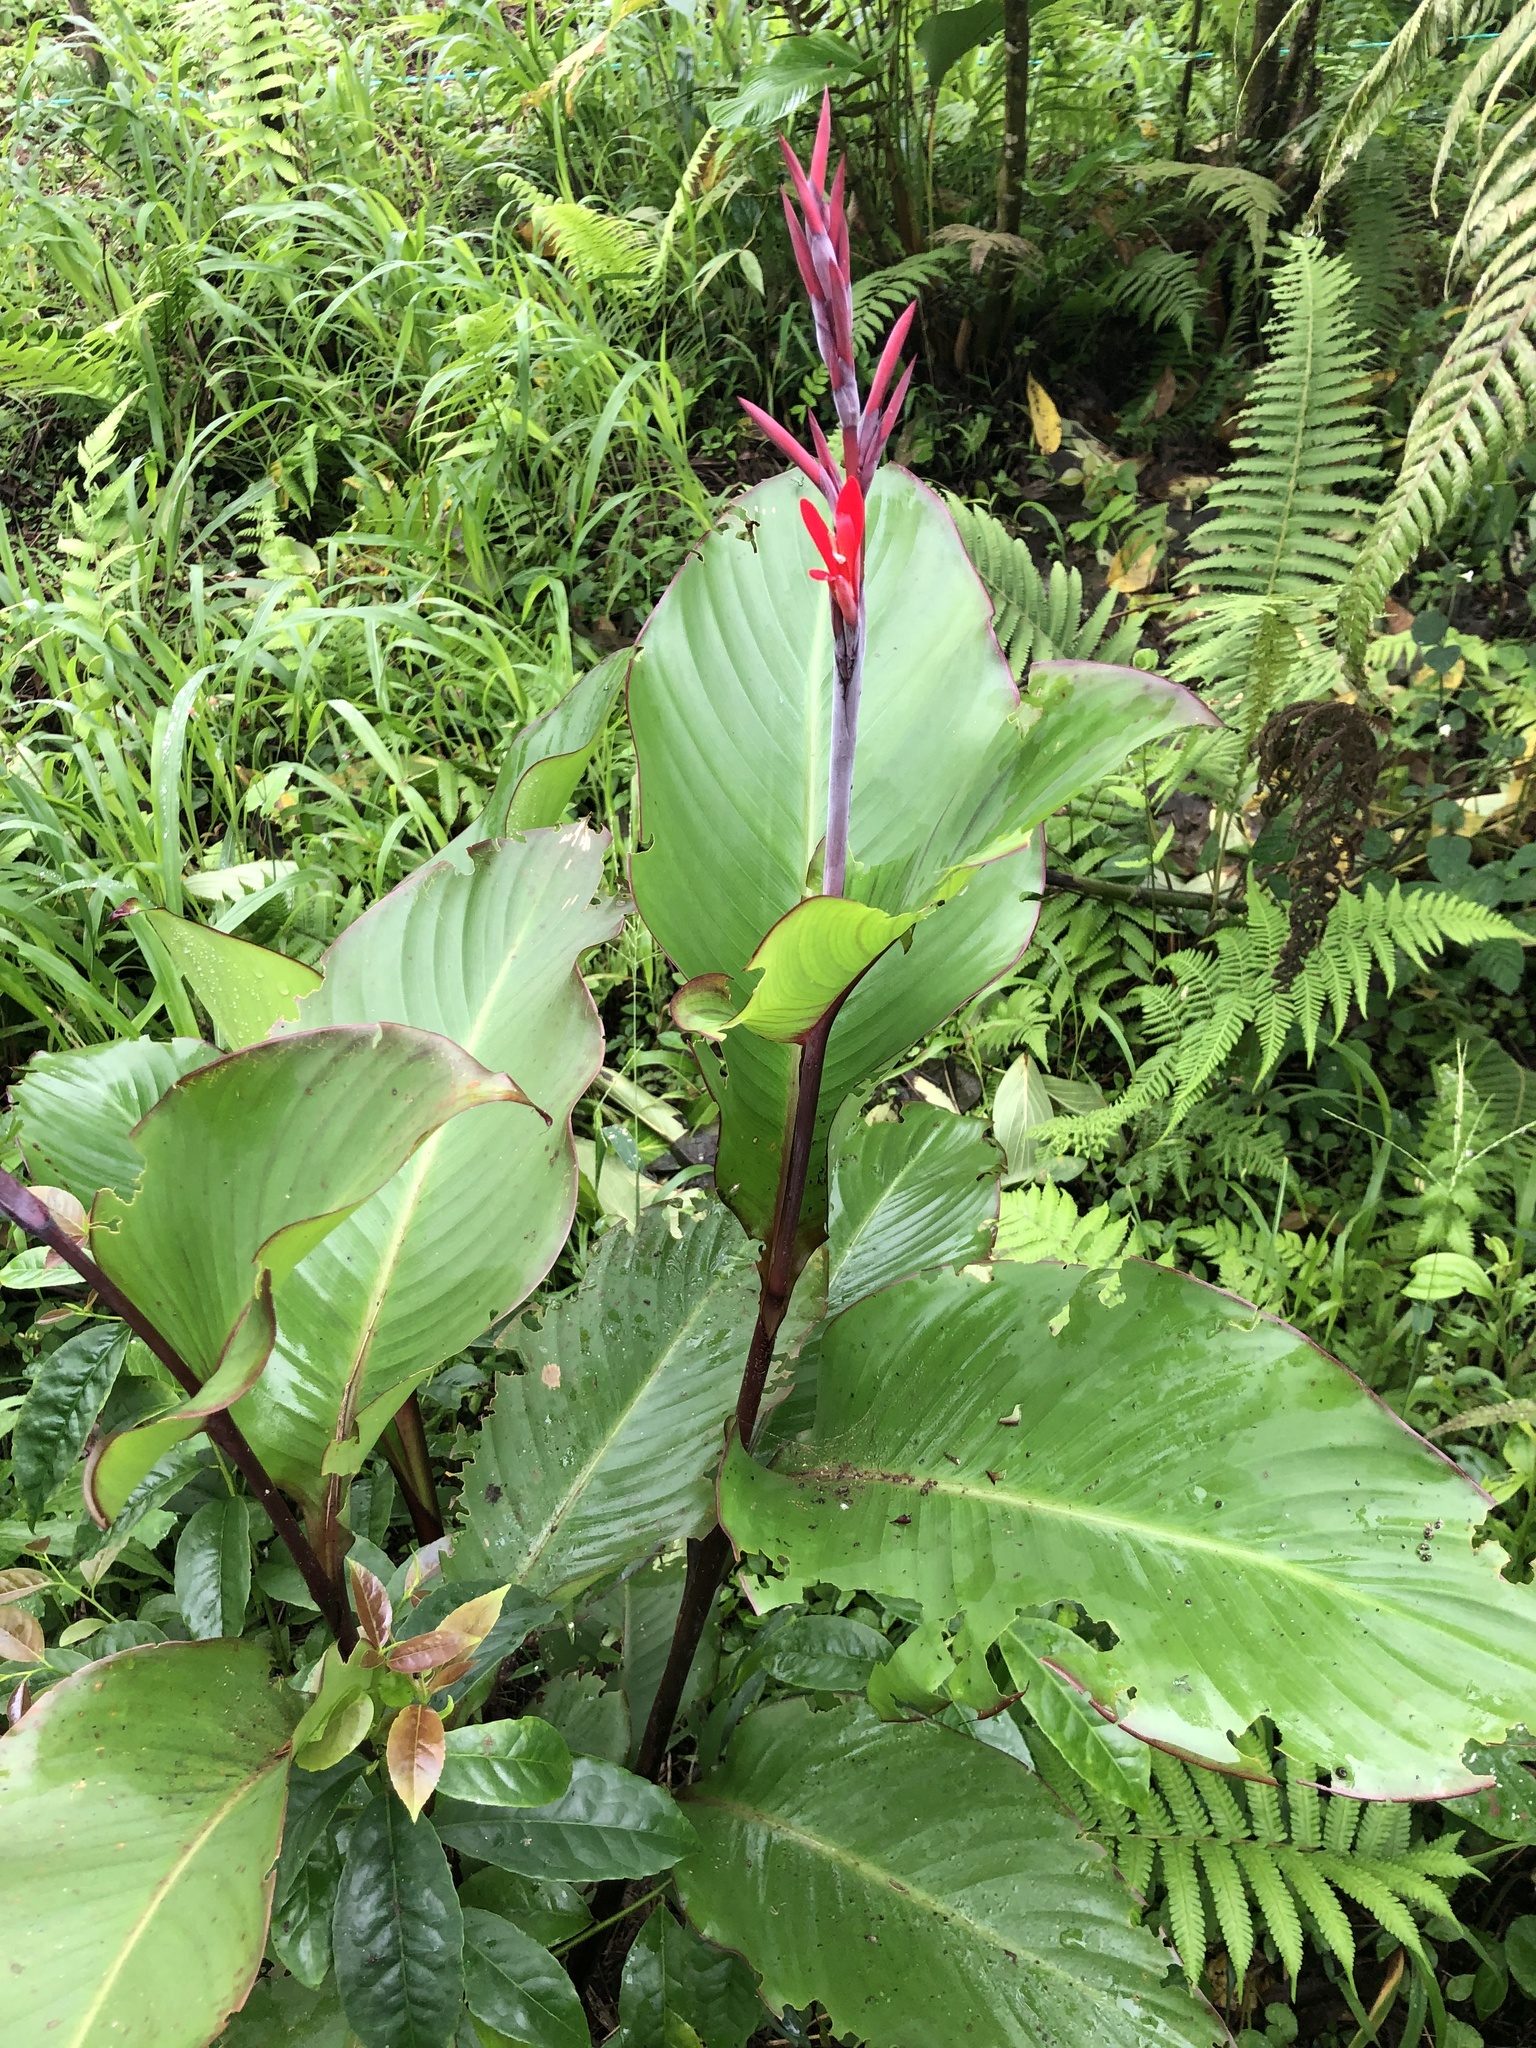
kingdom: Plantae
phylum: Tracheophyta
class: Liliopsida
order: Zingiberales
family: Cannaceae
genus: Canna
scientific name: Canna indica
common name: Indian shot
